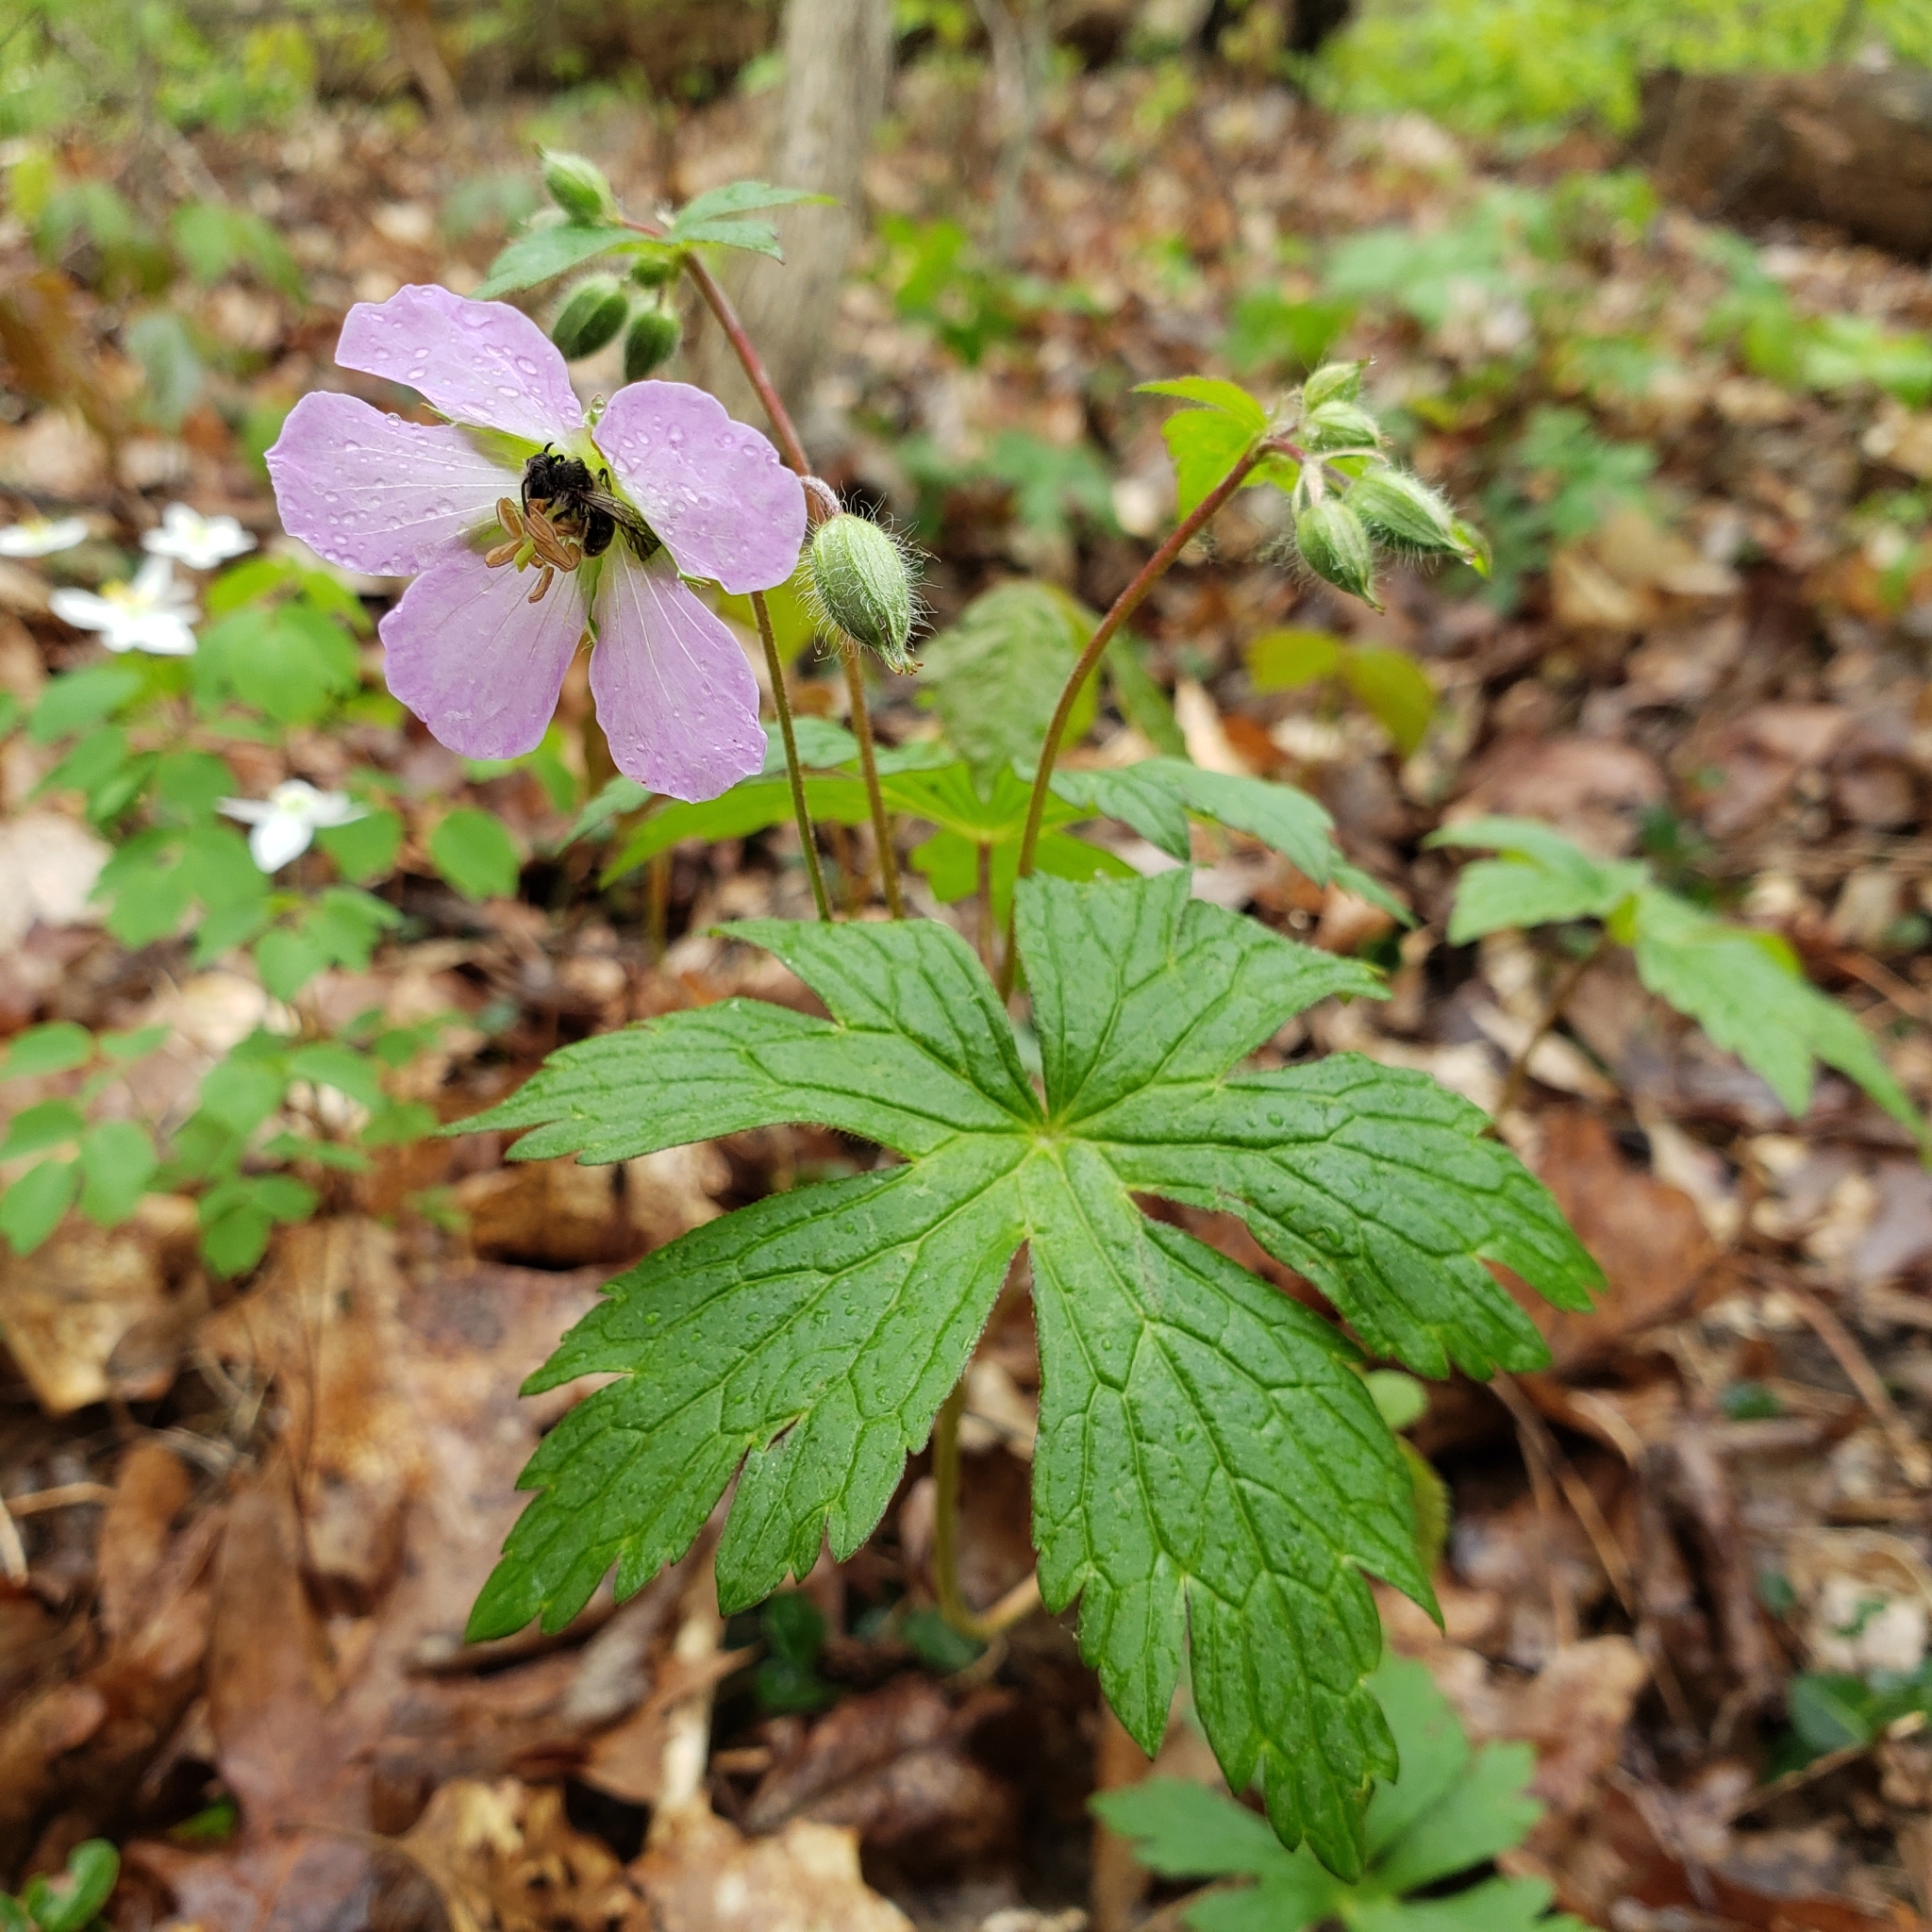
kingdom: Plantae
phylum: Tracheophyta
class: Magnoliopsida
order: Geraniales
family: Geraniaceae
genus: Geranium
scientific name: Geranium maculatum
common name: Spotted geranium
